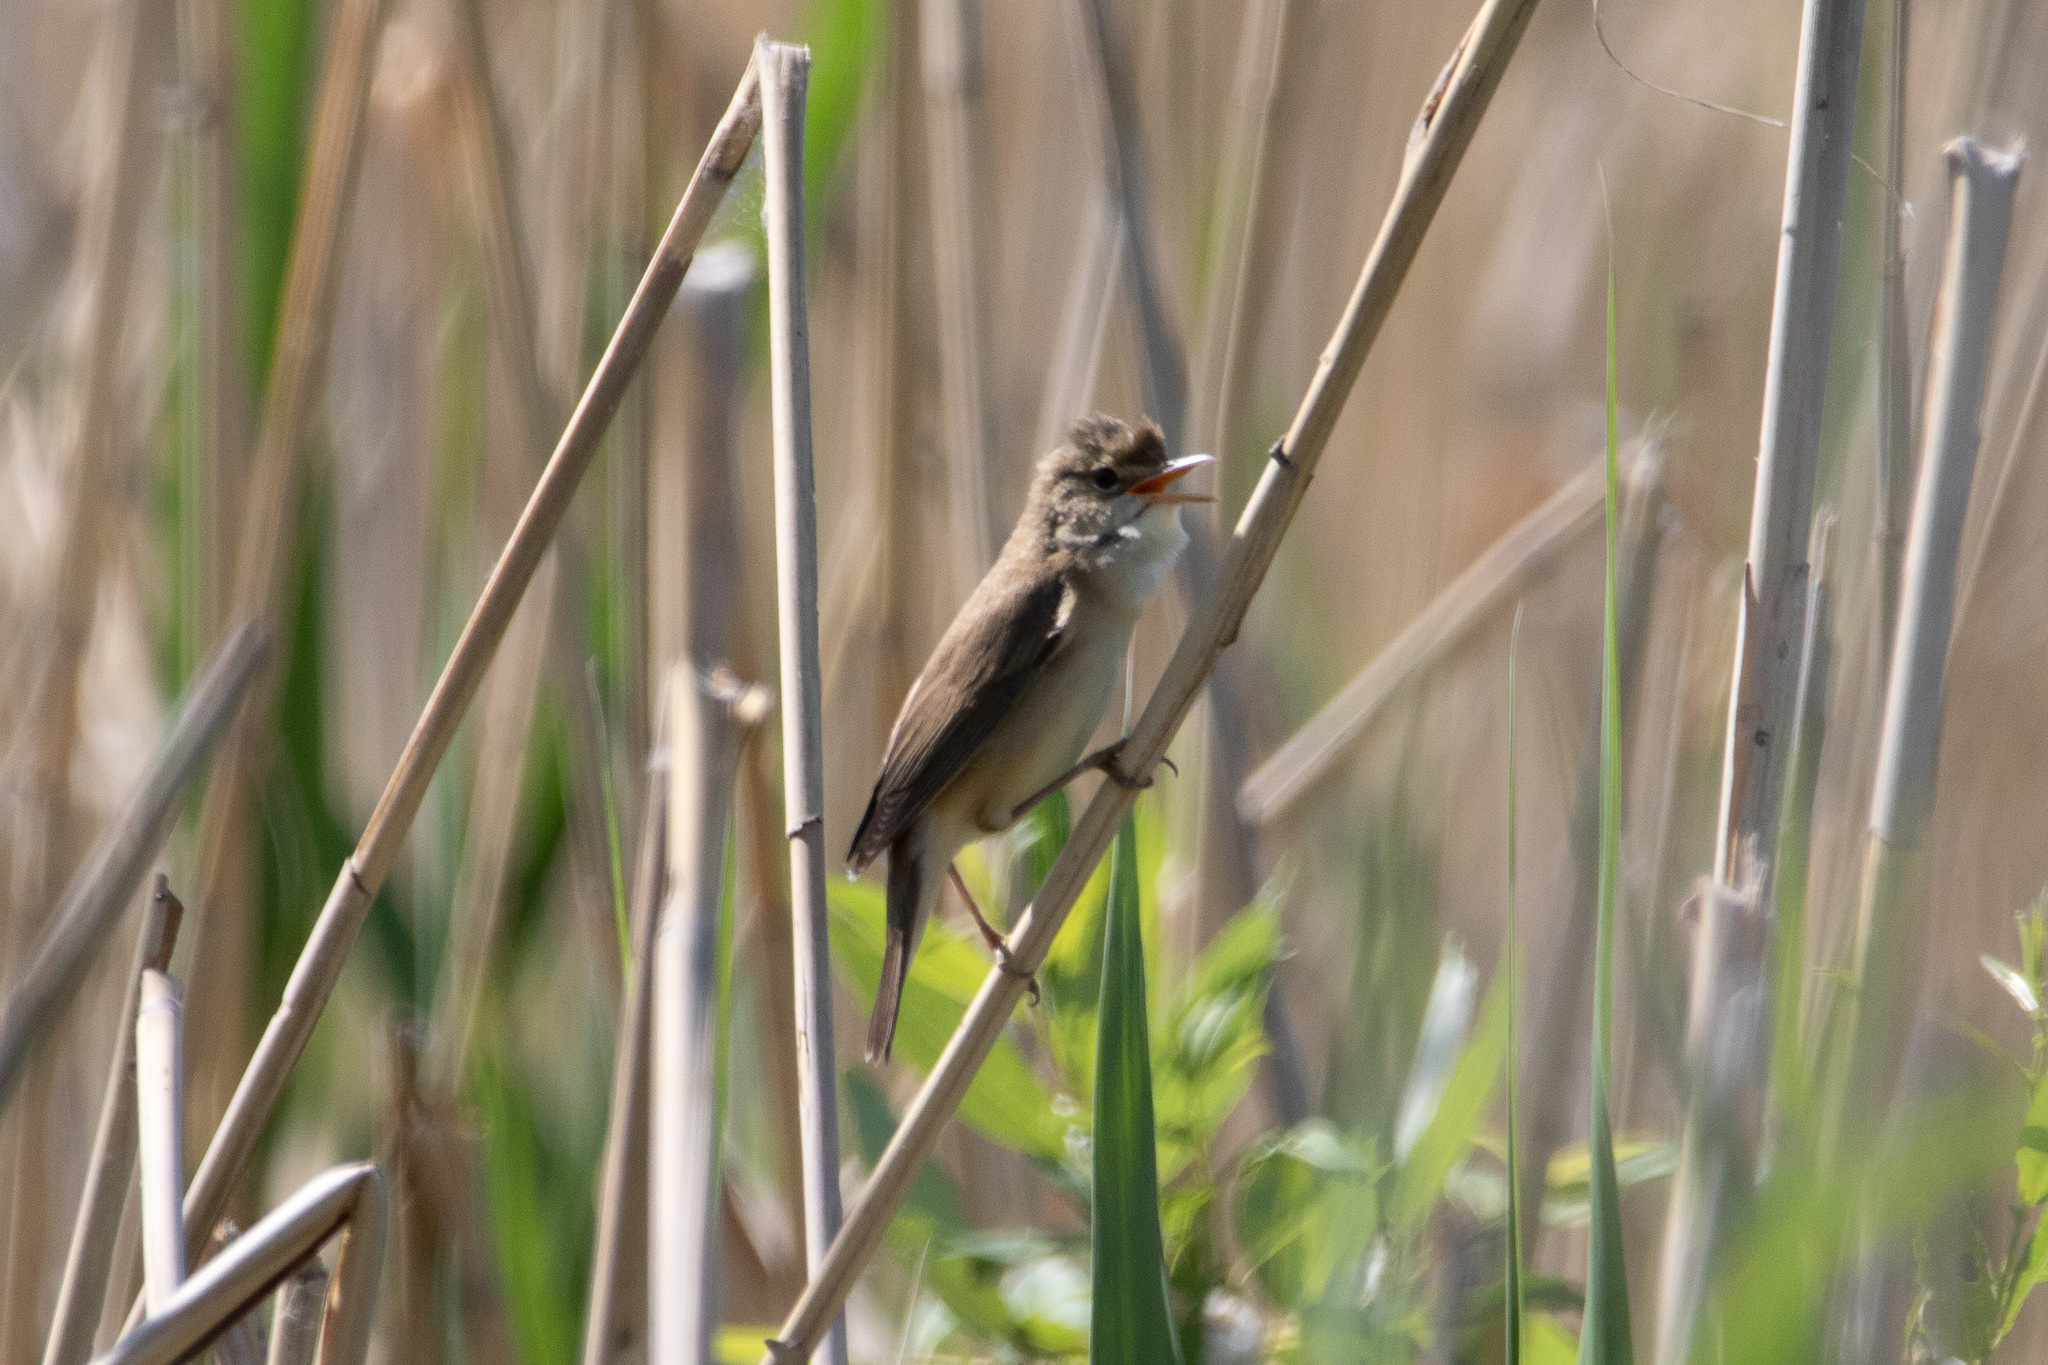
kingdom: Animalia
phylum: Chordata
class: Aves
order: Passeriformes
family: Acrocephalidae
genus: Acrocephalus
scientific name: Acrocephalus scirpaceus
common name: Eurasian reed warbler
